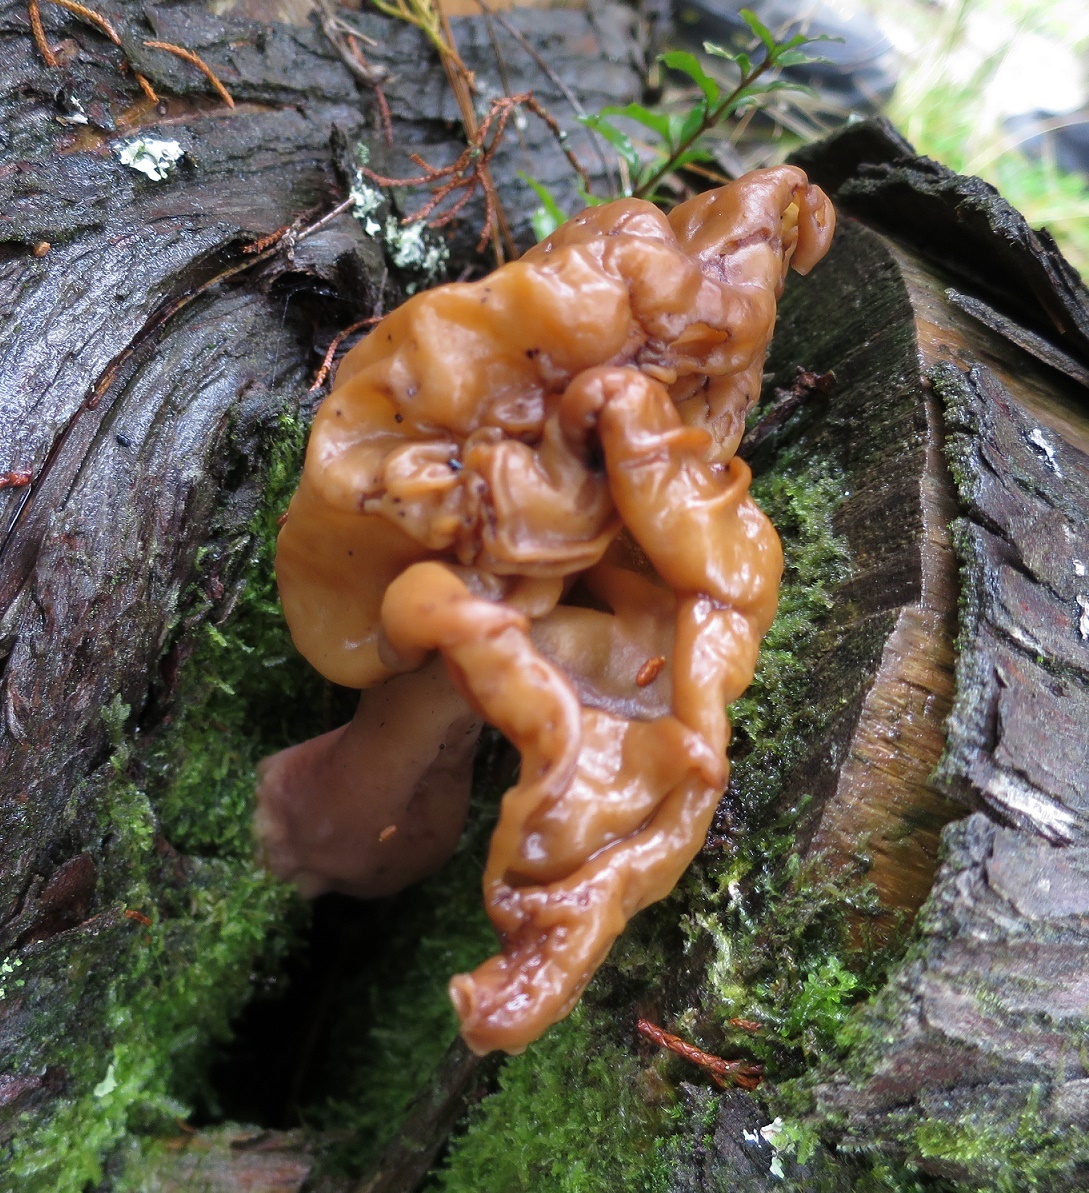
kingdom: Fungi
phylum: Ascomycota
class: Pezizomycetes
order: Pezizales
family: Discinaceae
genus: Gyromitra
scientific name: Gyromitra infula
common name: Pouched false morel
